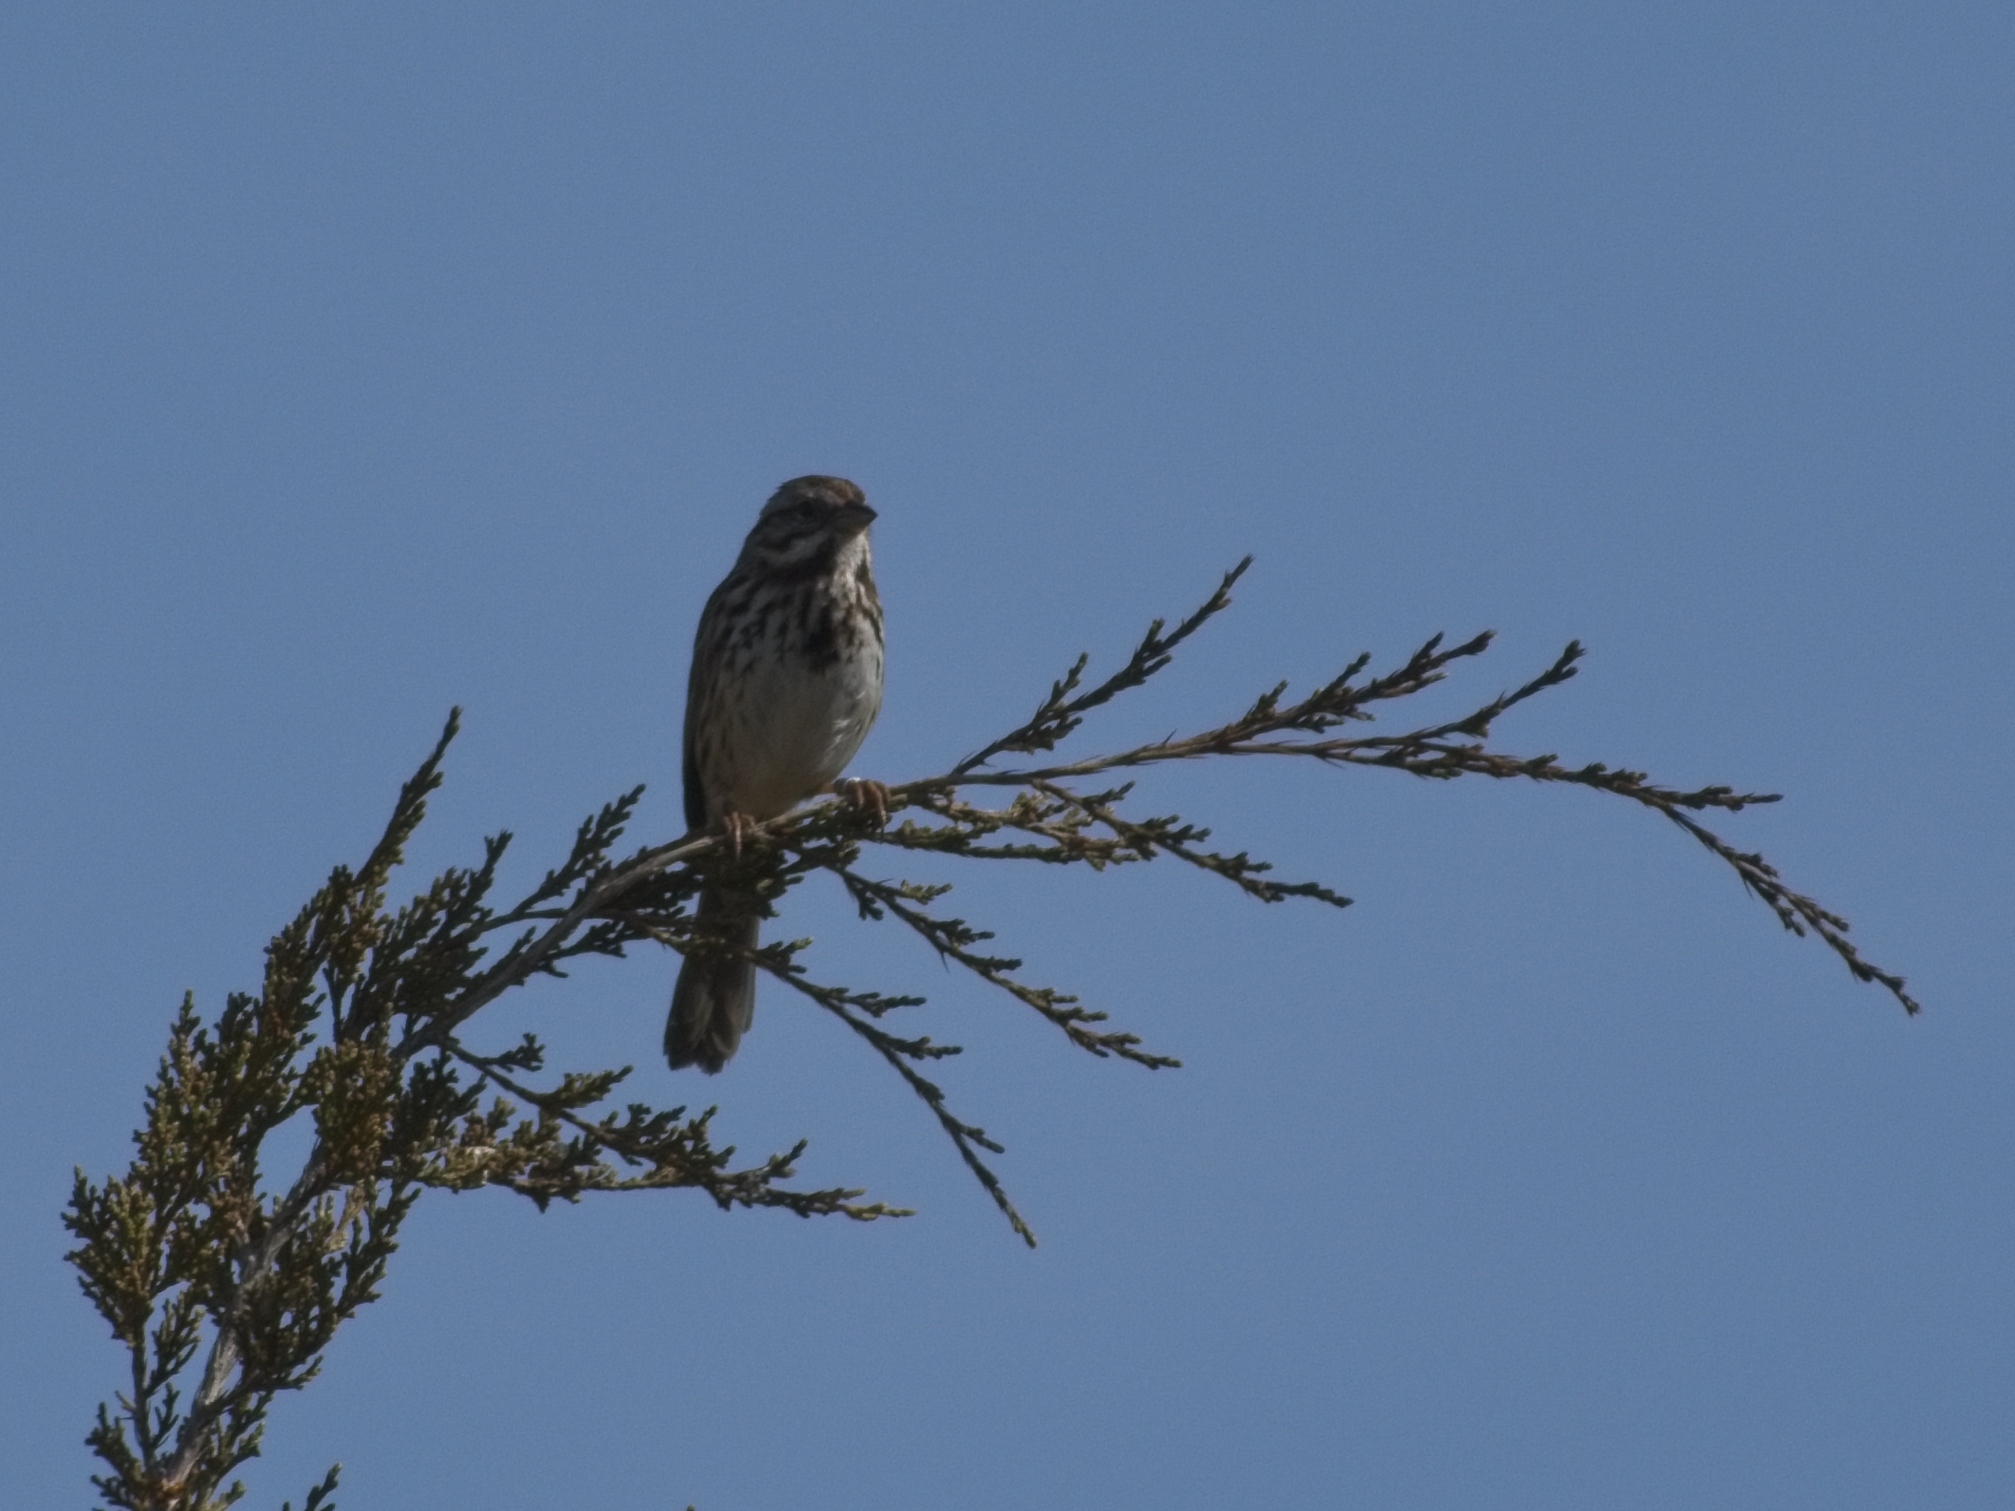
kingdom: Animalia
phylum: Chordata
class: Aves
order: Passeriformes
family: Passerellidae
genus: Melospiza
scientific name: Melospiza melodia
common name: Song sparrow
